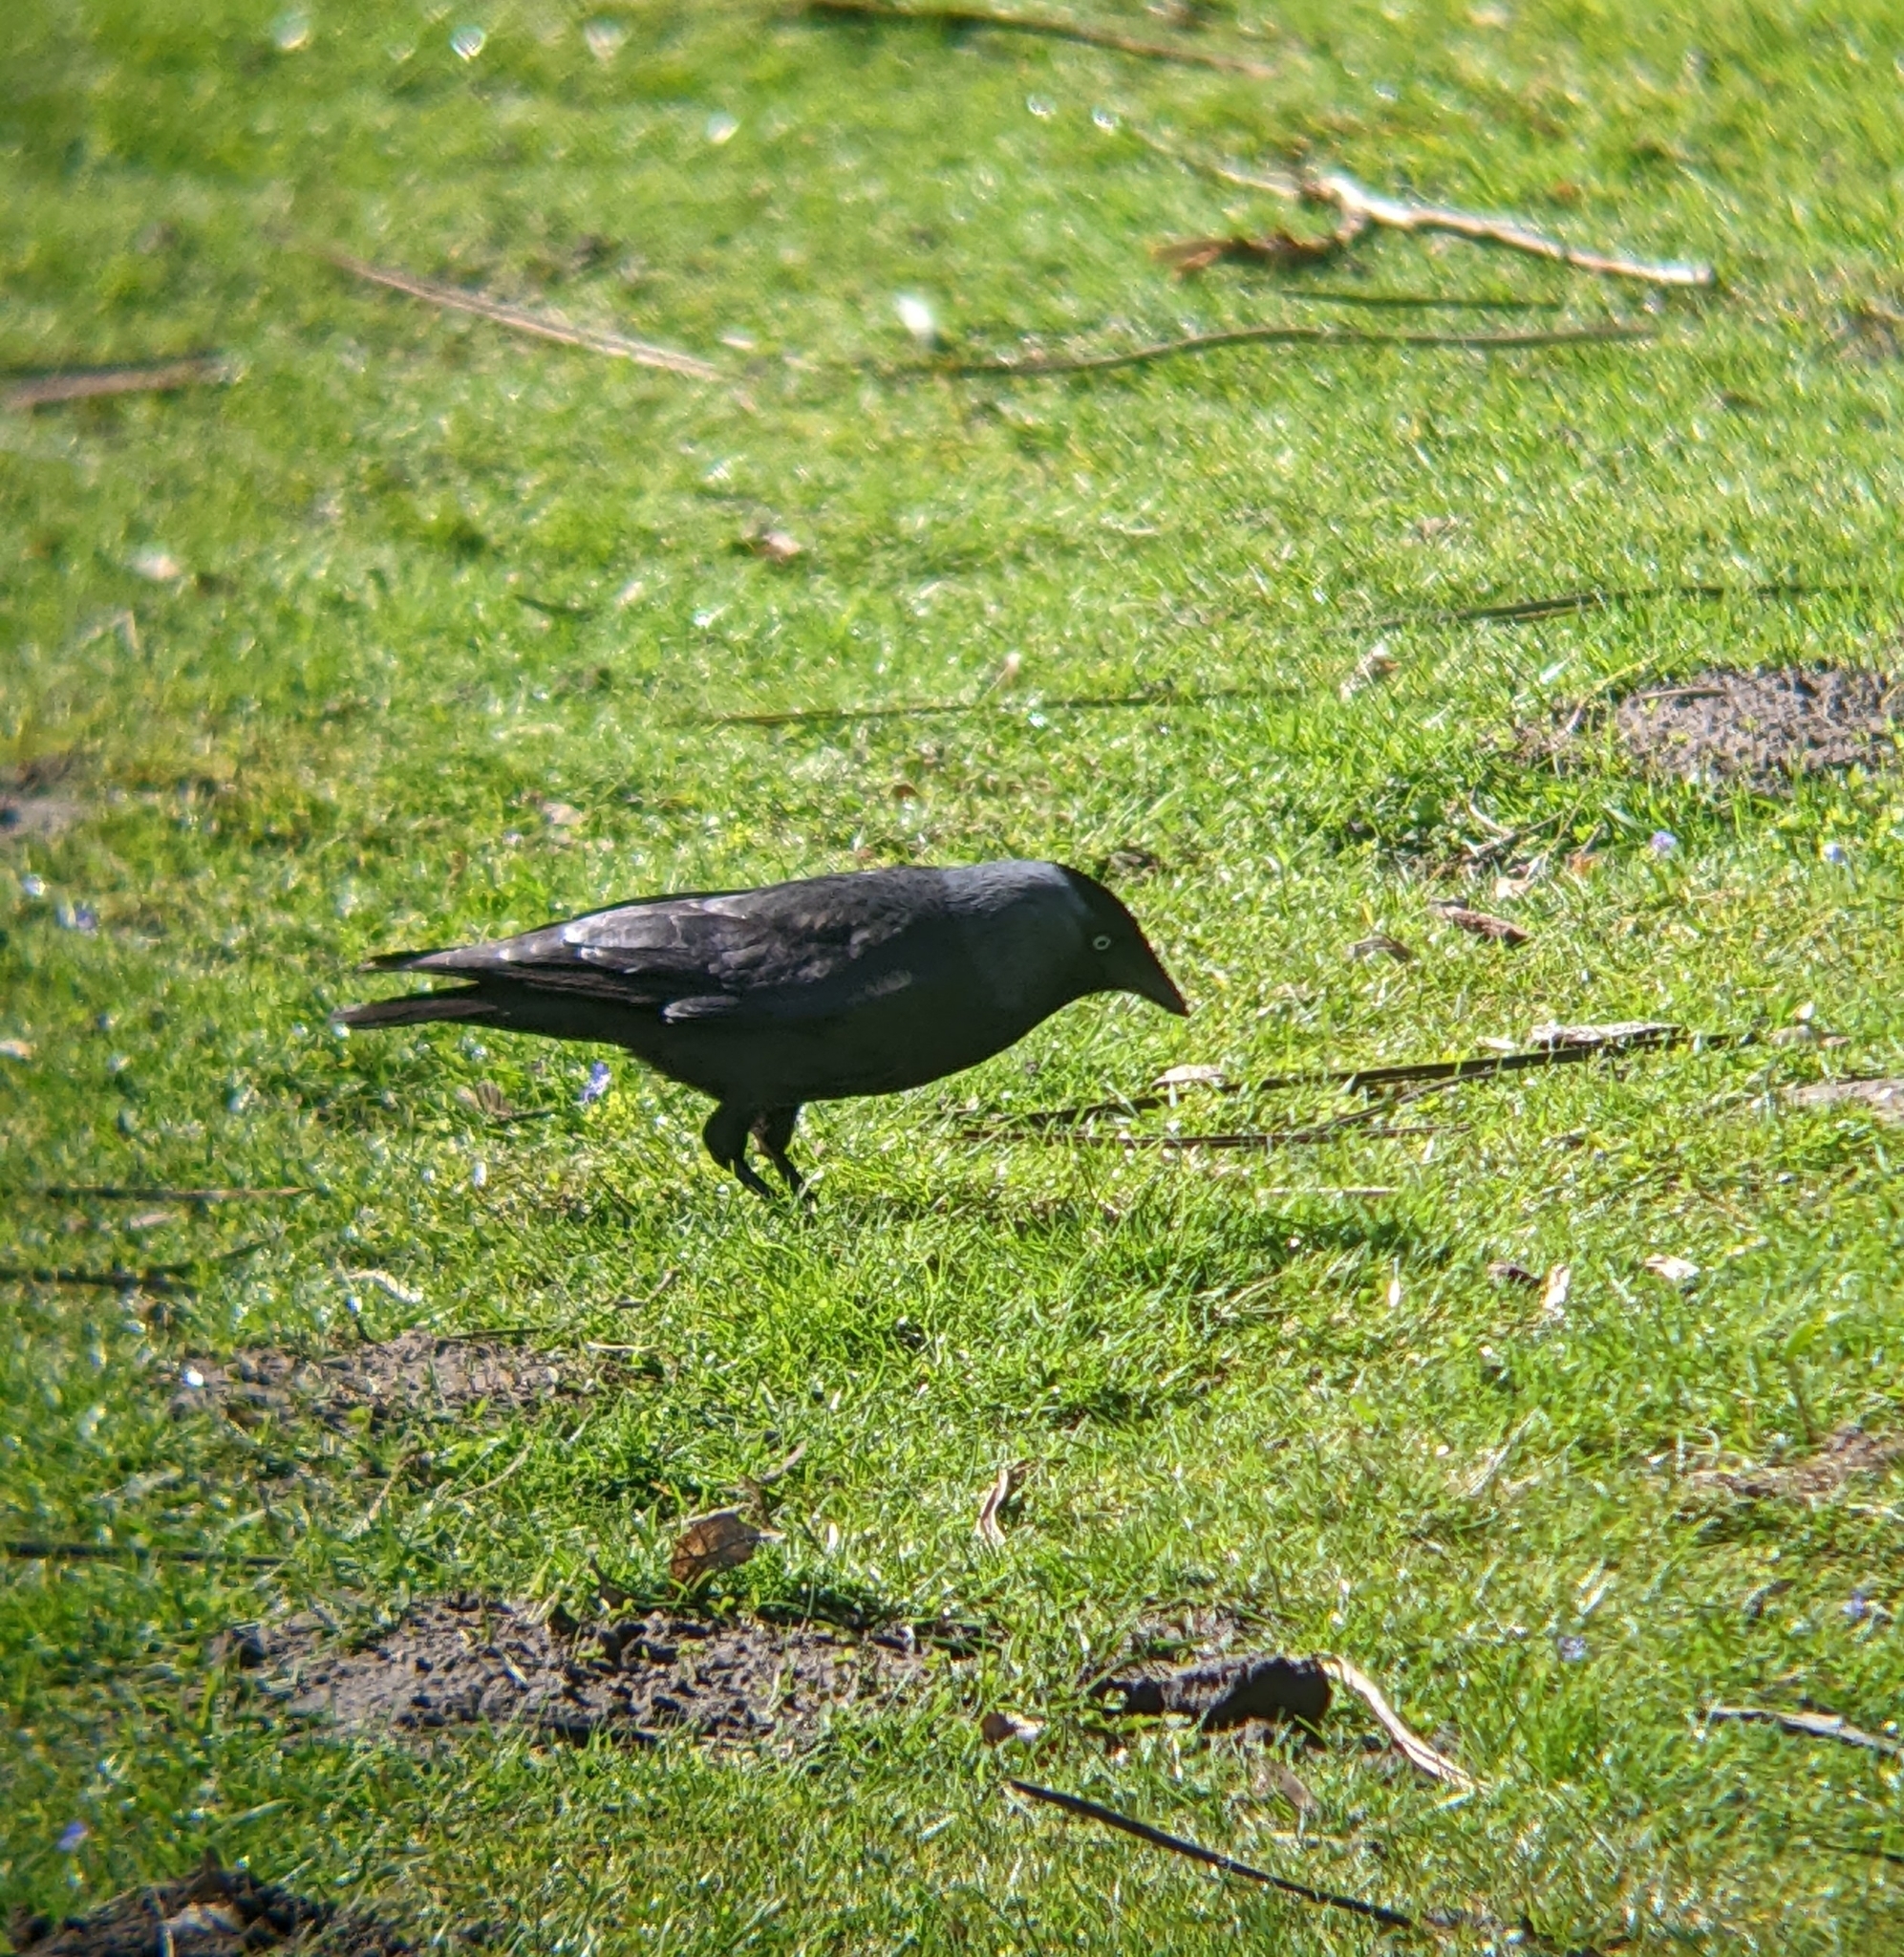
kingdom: Animalia
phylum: Chordata
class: Aves
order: Passeriformes
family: Corvidae
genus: Coloeus
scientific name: Coloeus monedula
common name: Western jackdaw
